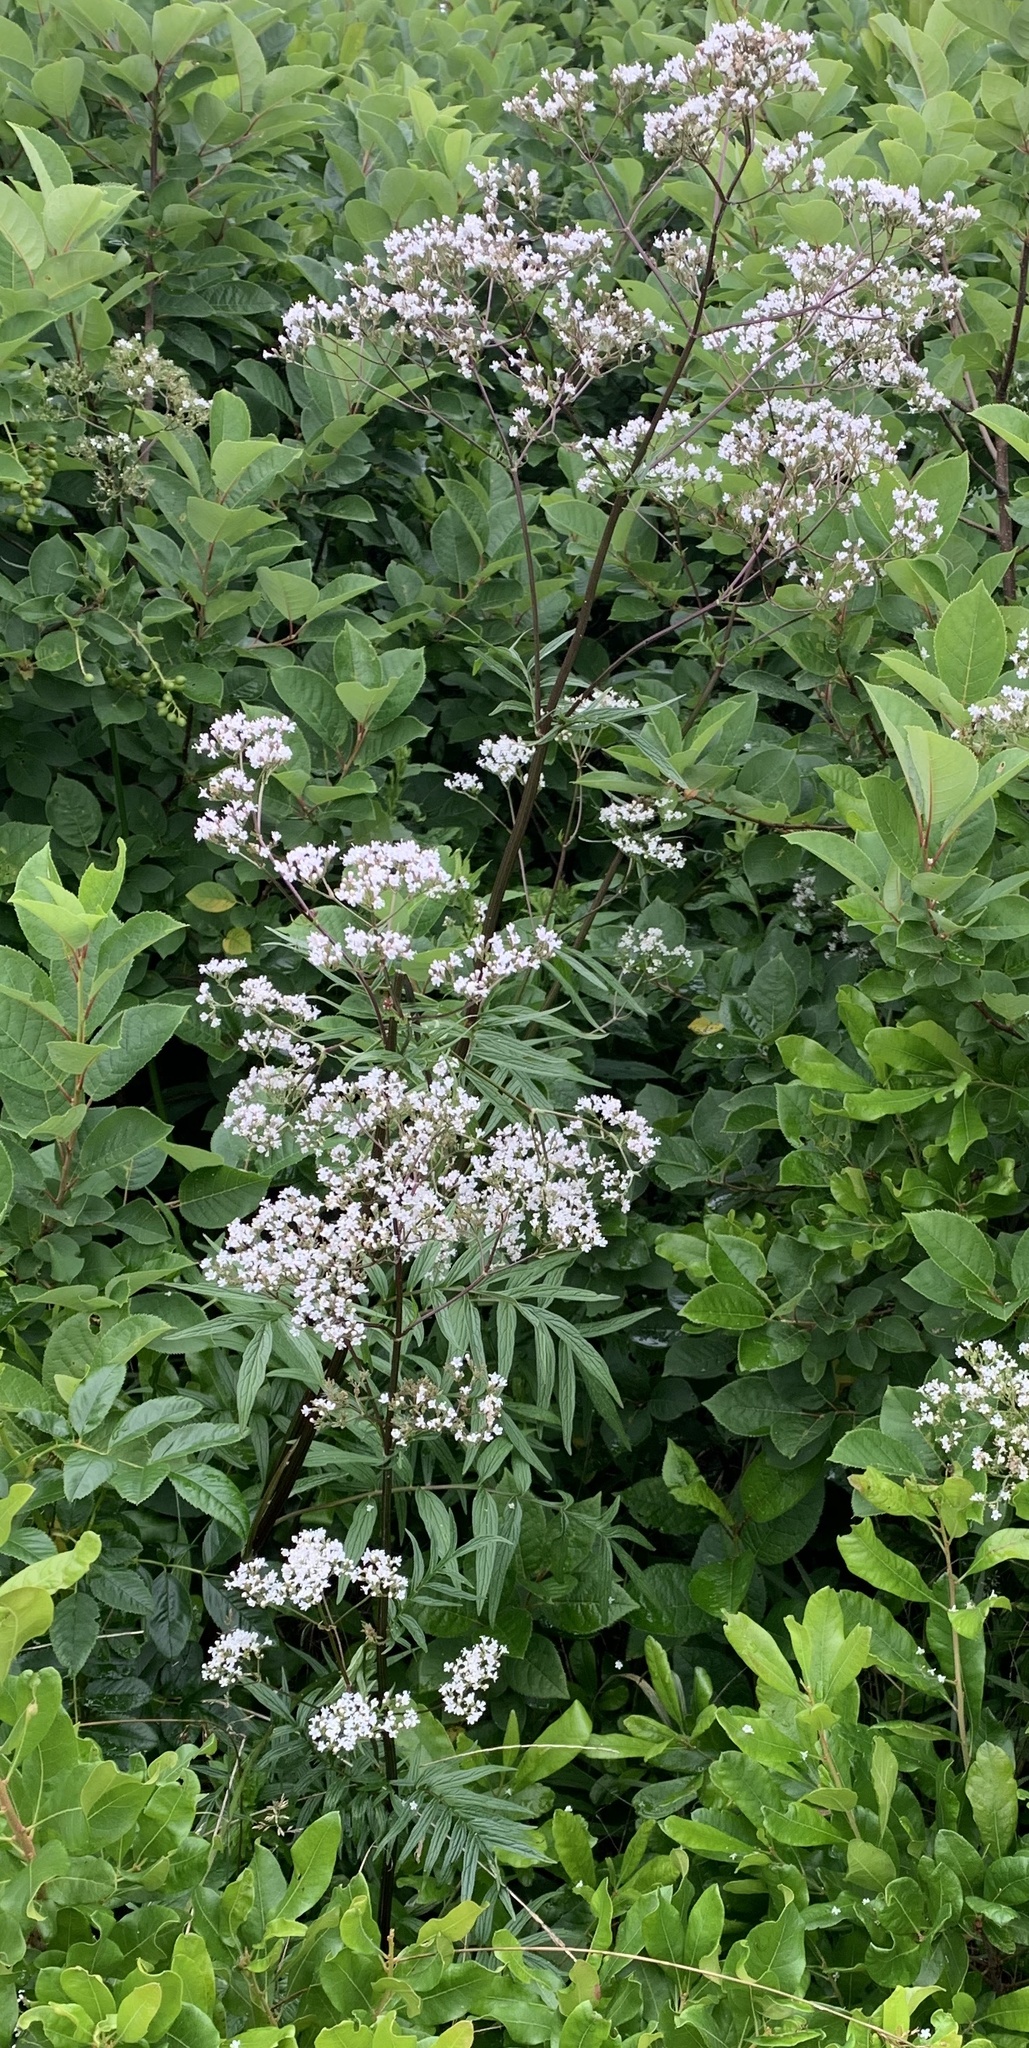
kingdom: Plantae
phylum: Tracheophyta
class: Magnoliopsida
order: Dipsacales
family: Caprifoliaceae
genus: Valeriana
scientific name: Valeriana officinalis
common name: Common valerian
